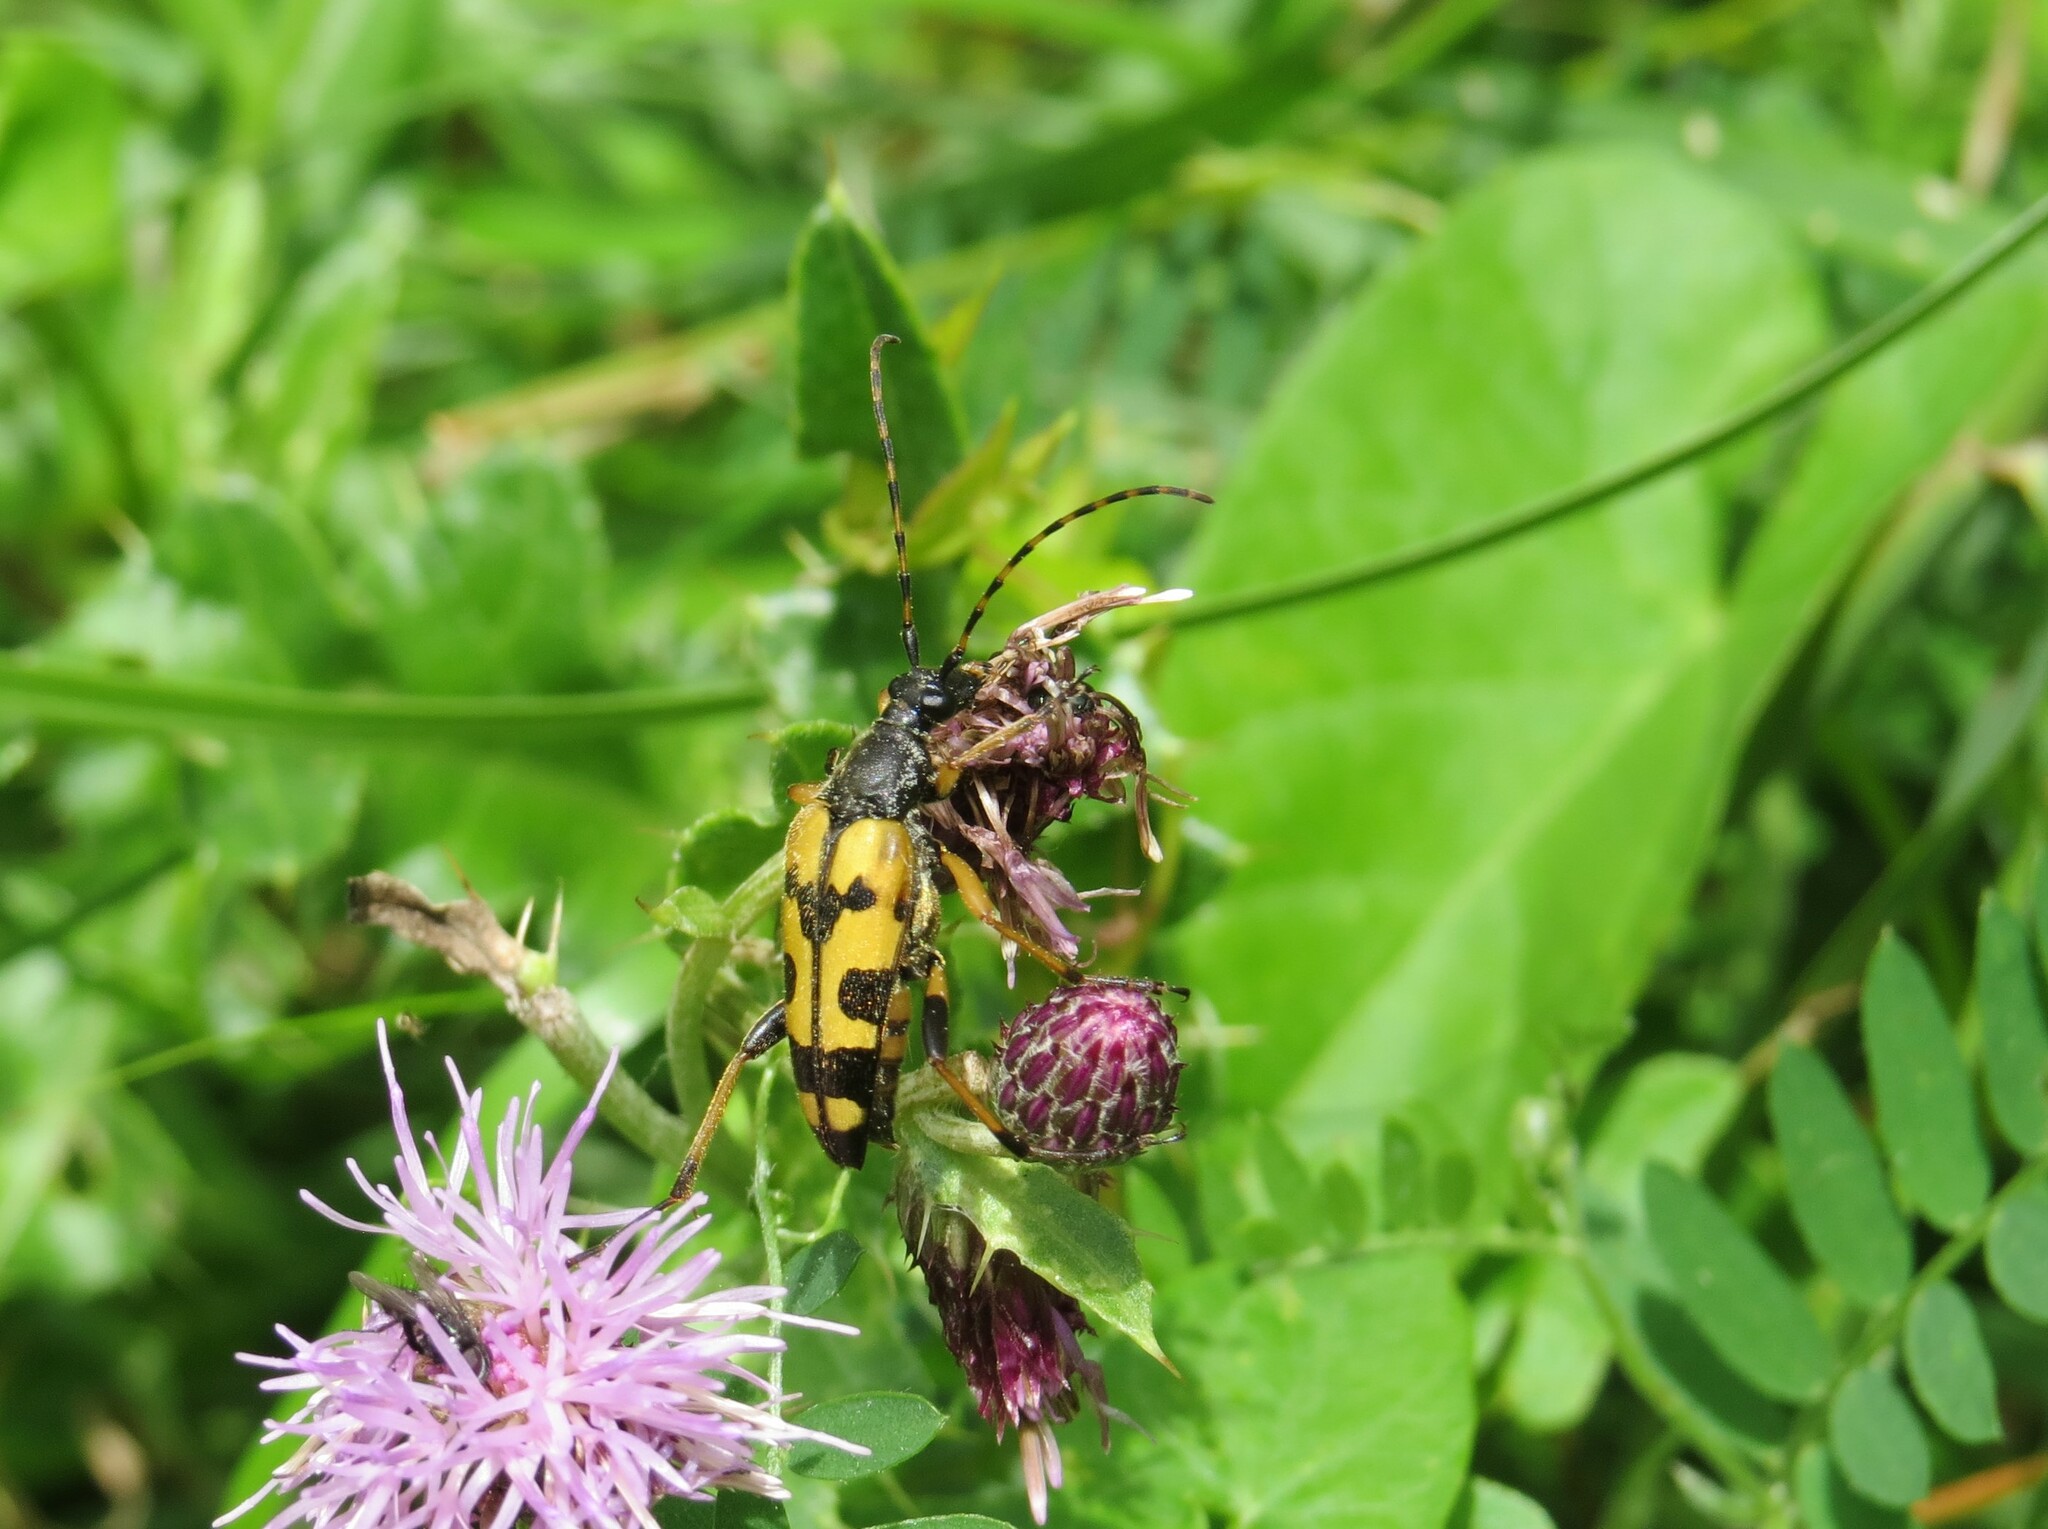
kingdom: Animalia
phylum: Arthropoda
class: Insecta
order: Coleoptera
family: Cerambycidae
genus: Rutpela
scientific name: Rutpela maculata
